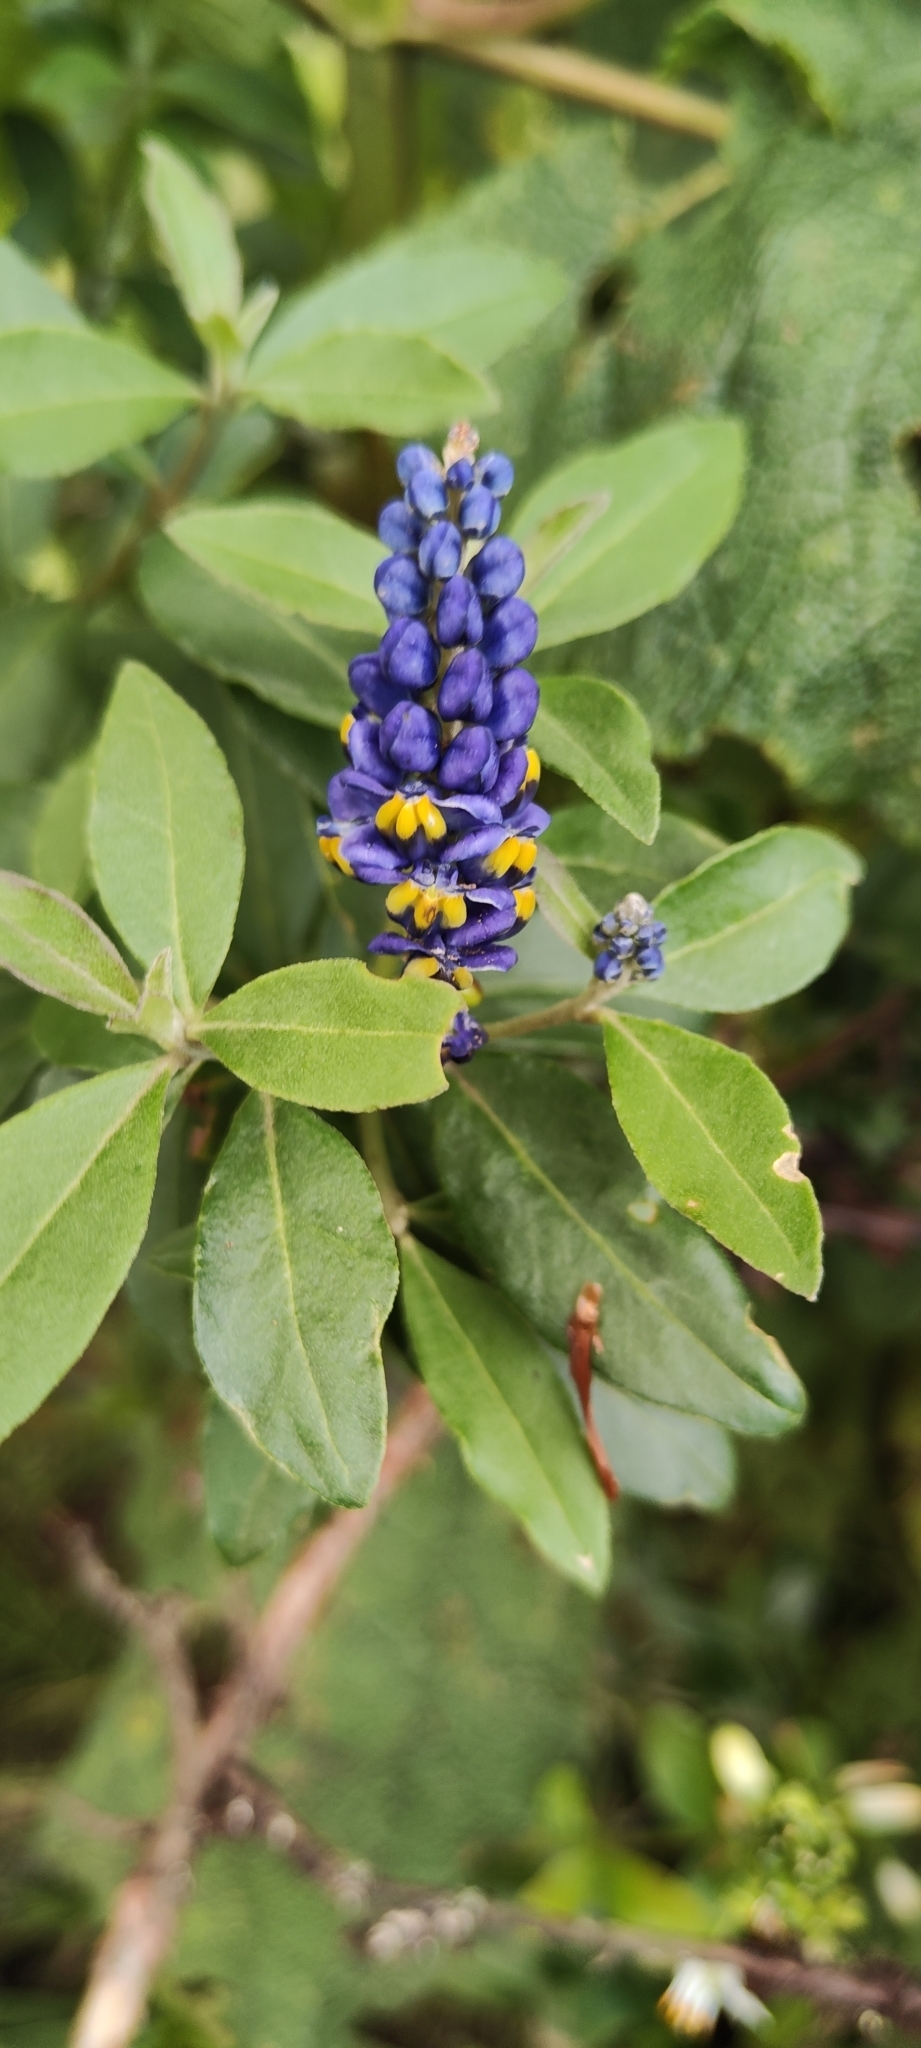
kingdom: Plantae
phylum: Tracheophyta
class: Magnoliopsida
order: Fabales
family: Polygalaceae
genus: Monnina
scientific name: Monnina salicifolia
